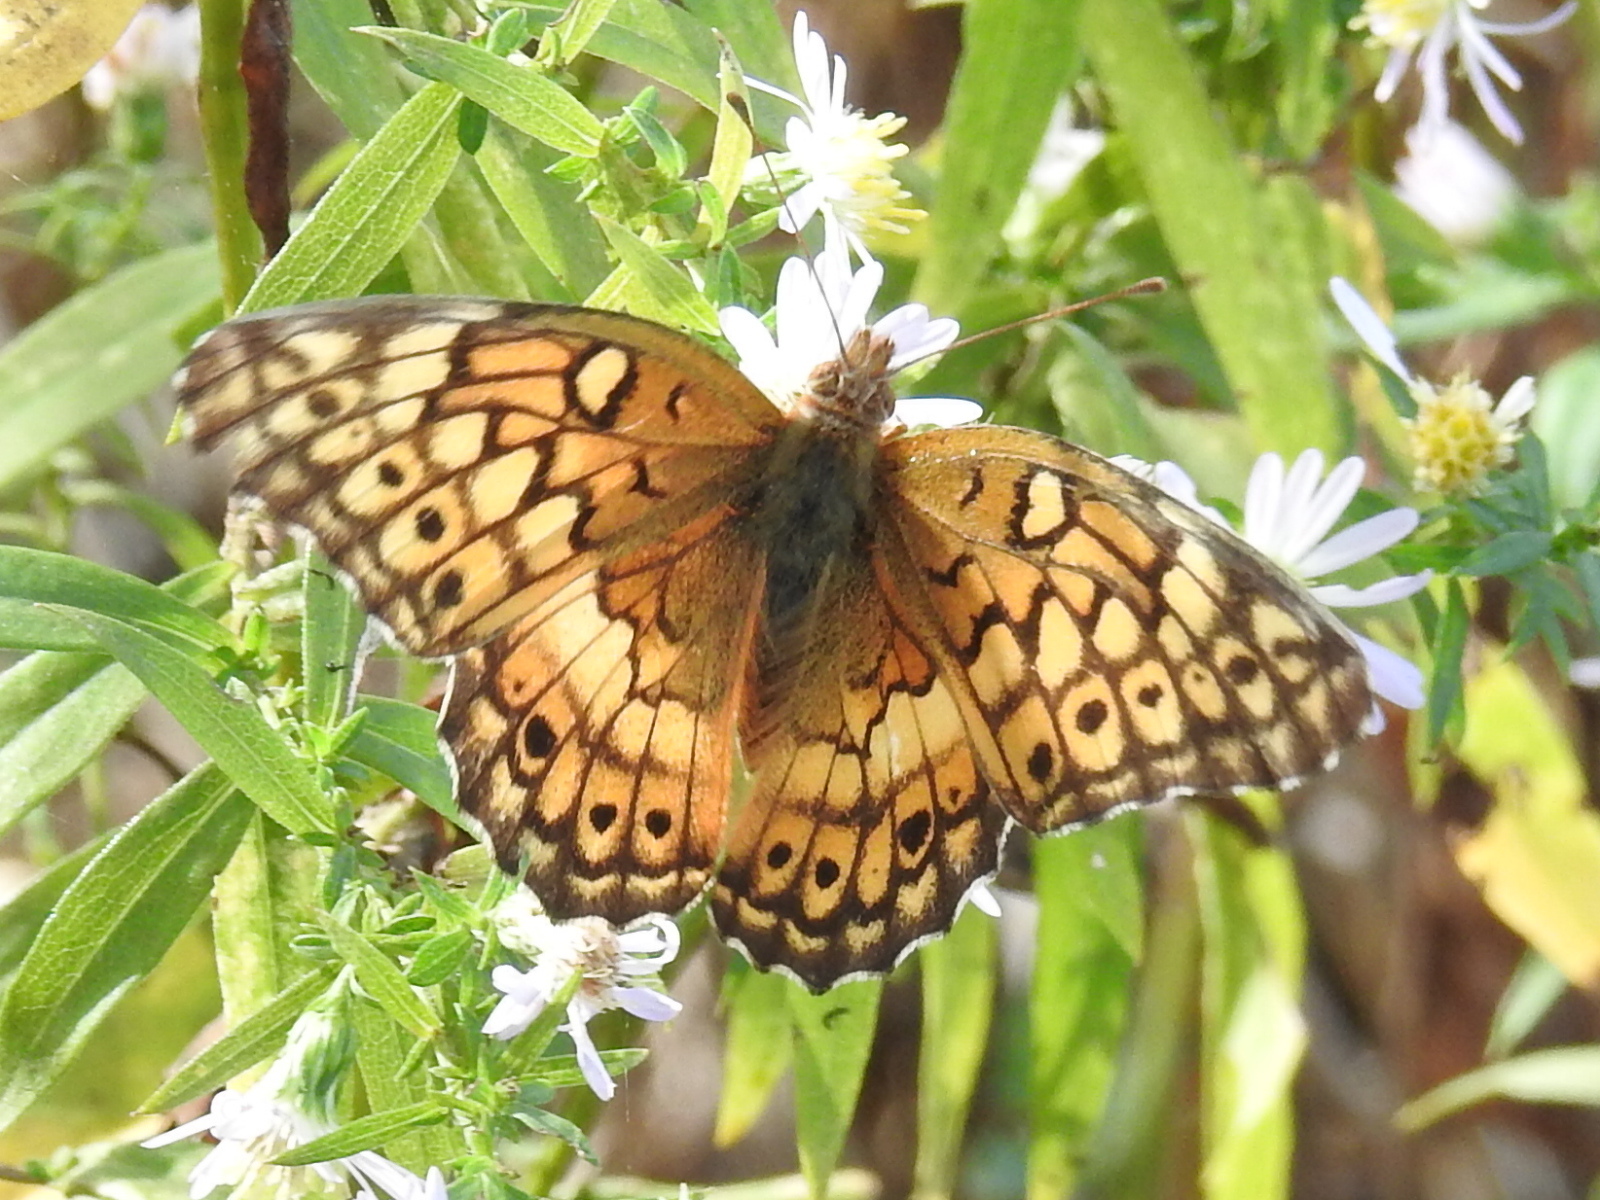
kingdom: Animalia
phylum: Arthropoda
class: Insecta
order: Lepidoptera
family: Nymphalidae
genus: Euptoieta
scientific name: Euptoieta claudia
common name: Variegated fritillary
